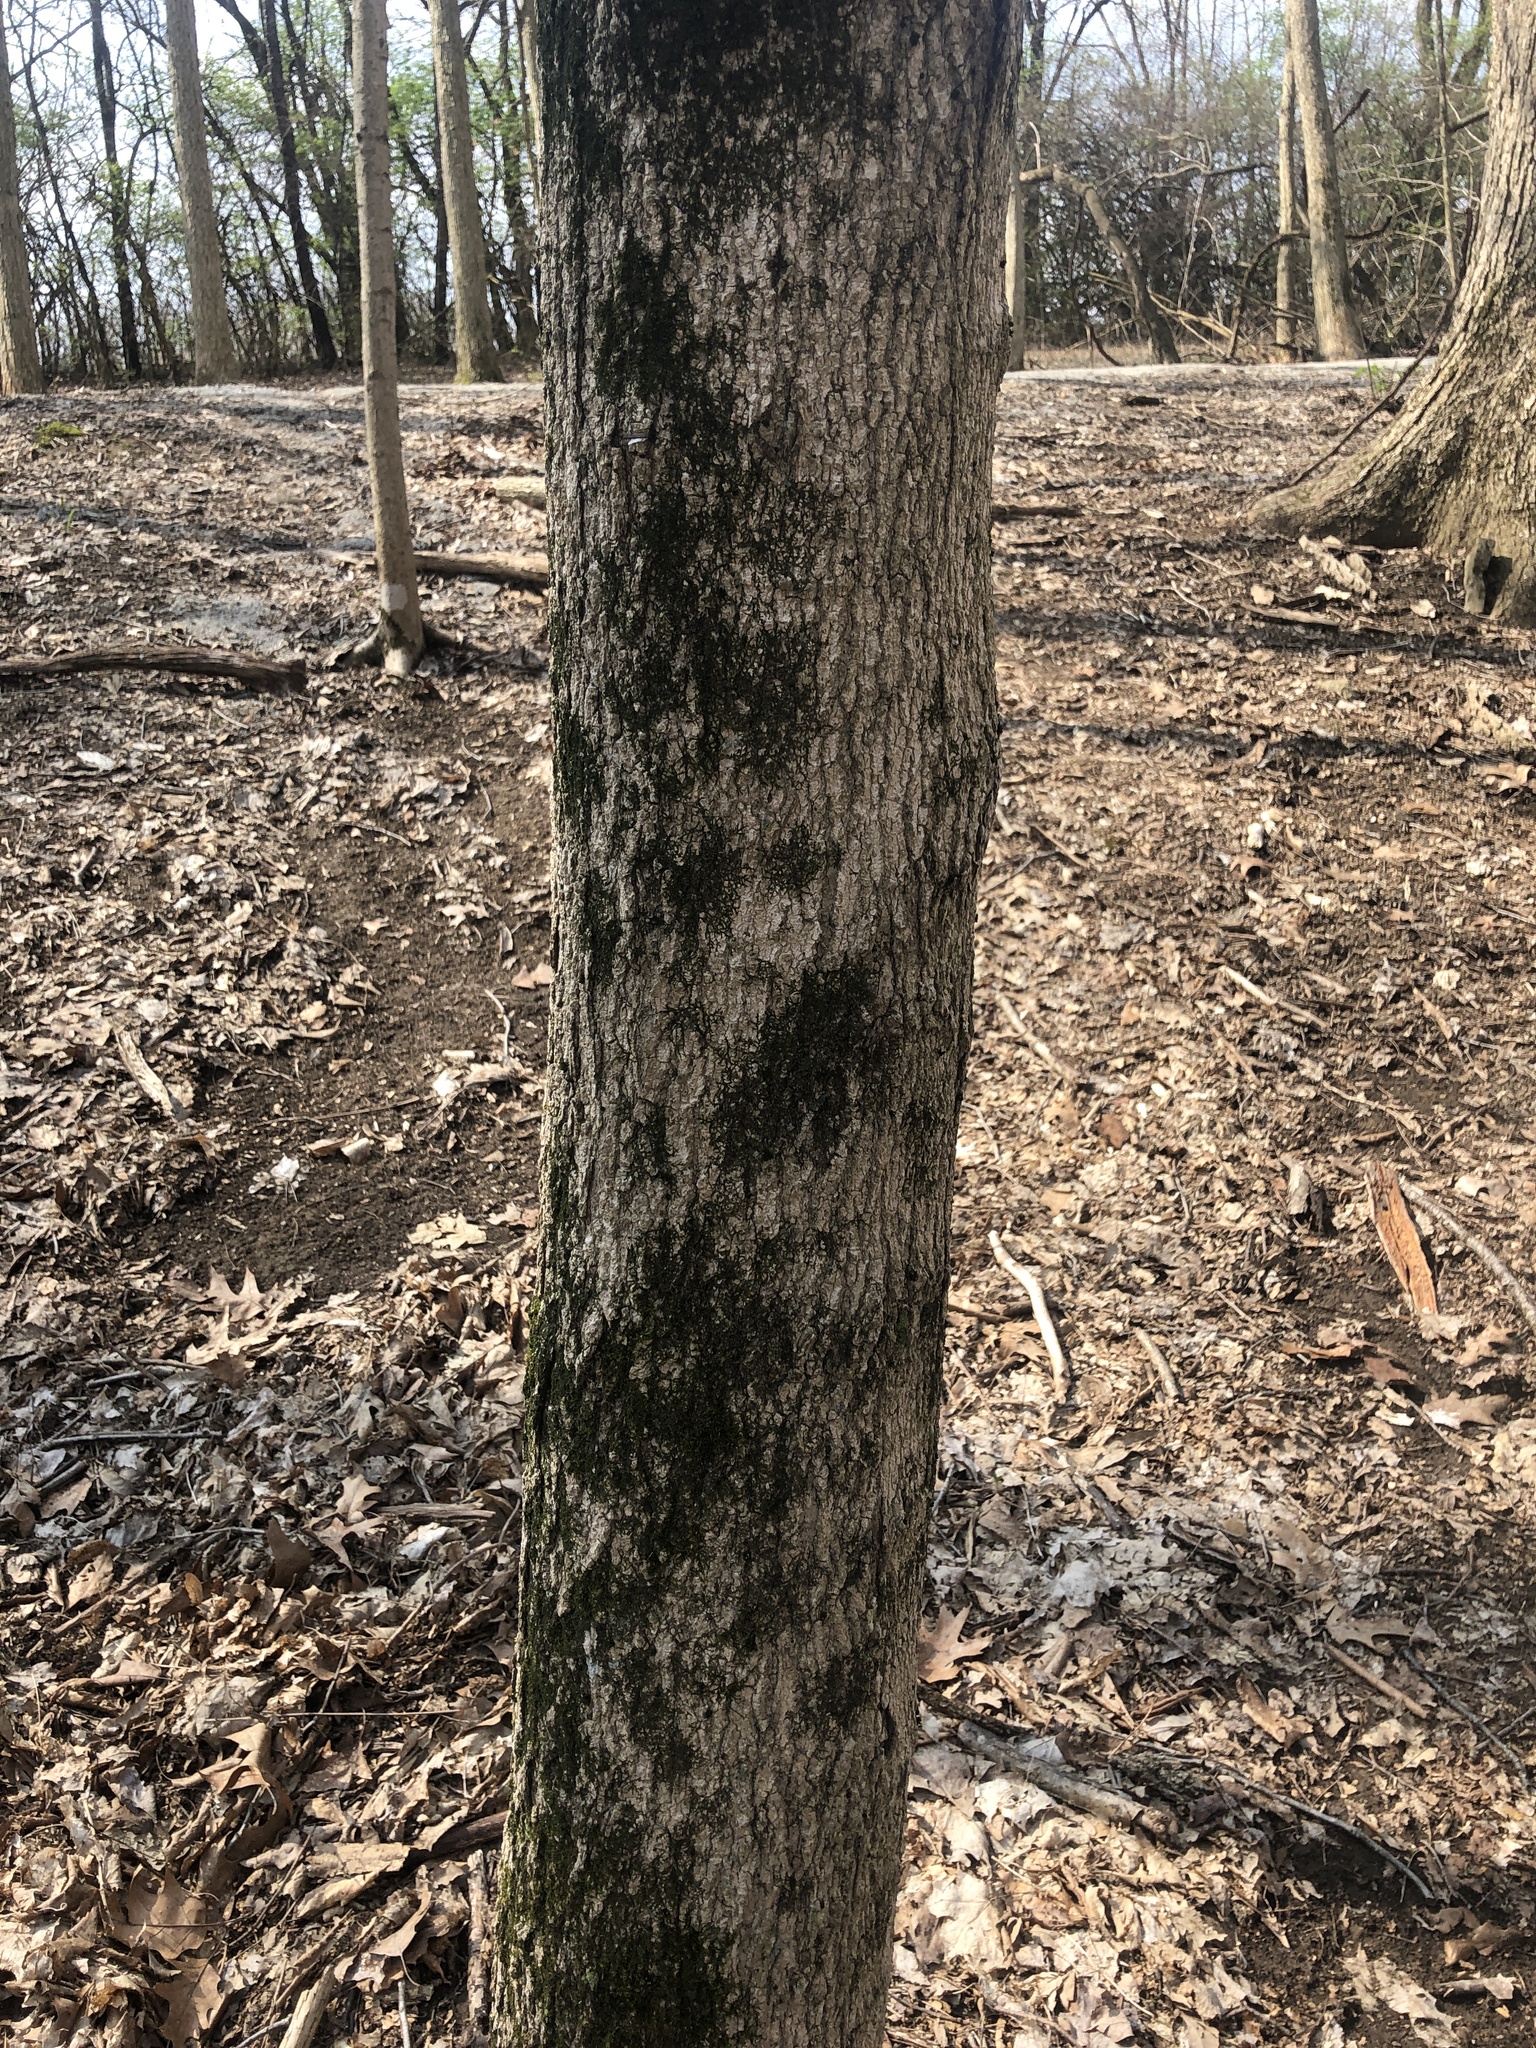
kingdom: Plantae
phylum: Tracheophyta
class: Magnoliopsida
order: Sapindales
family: Sapindaceae
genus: Acer
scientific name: Acer saccharum
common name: Sugar maple
